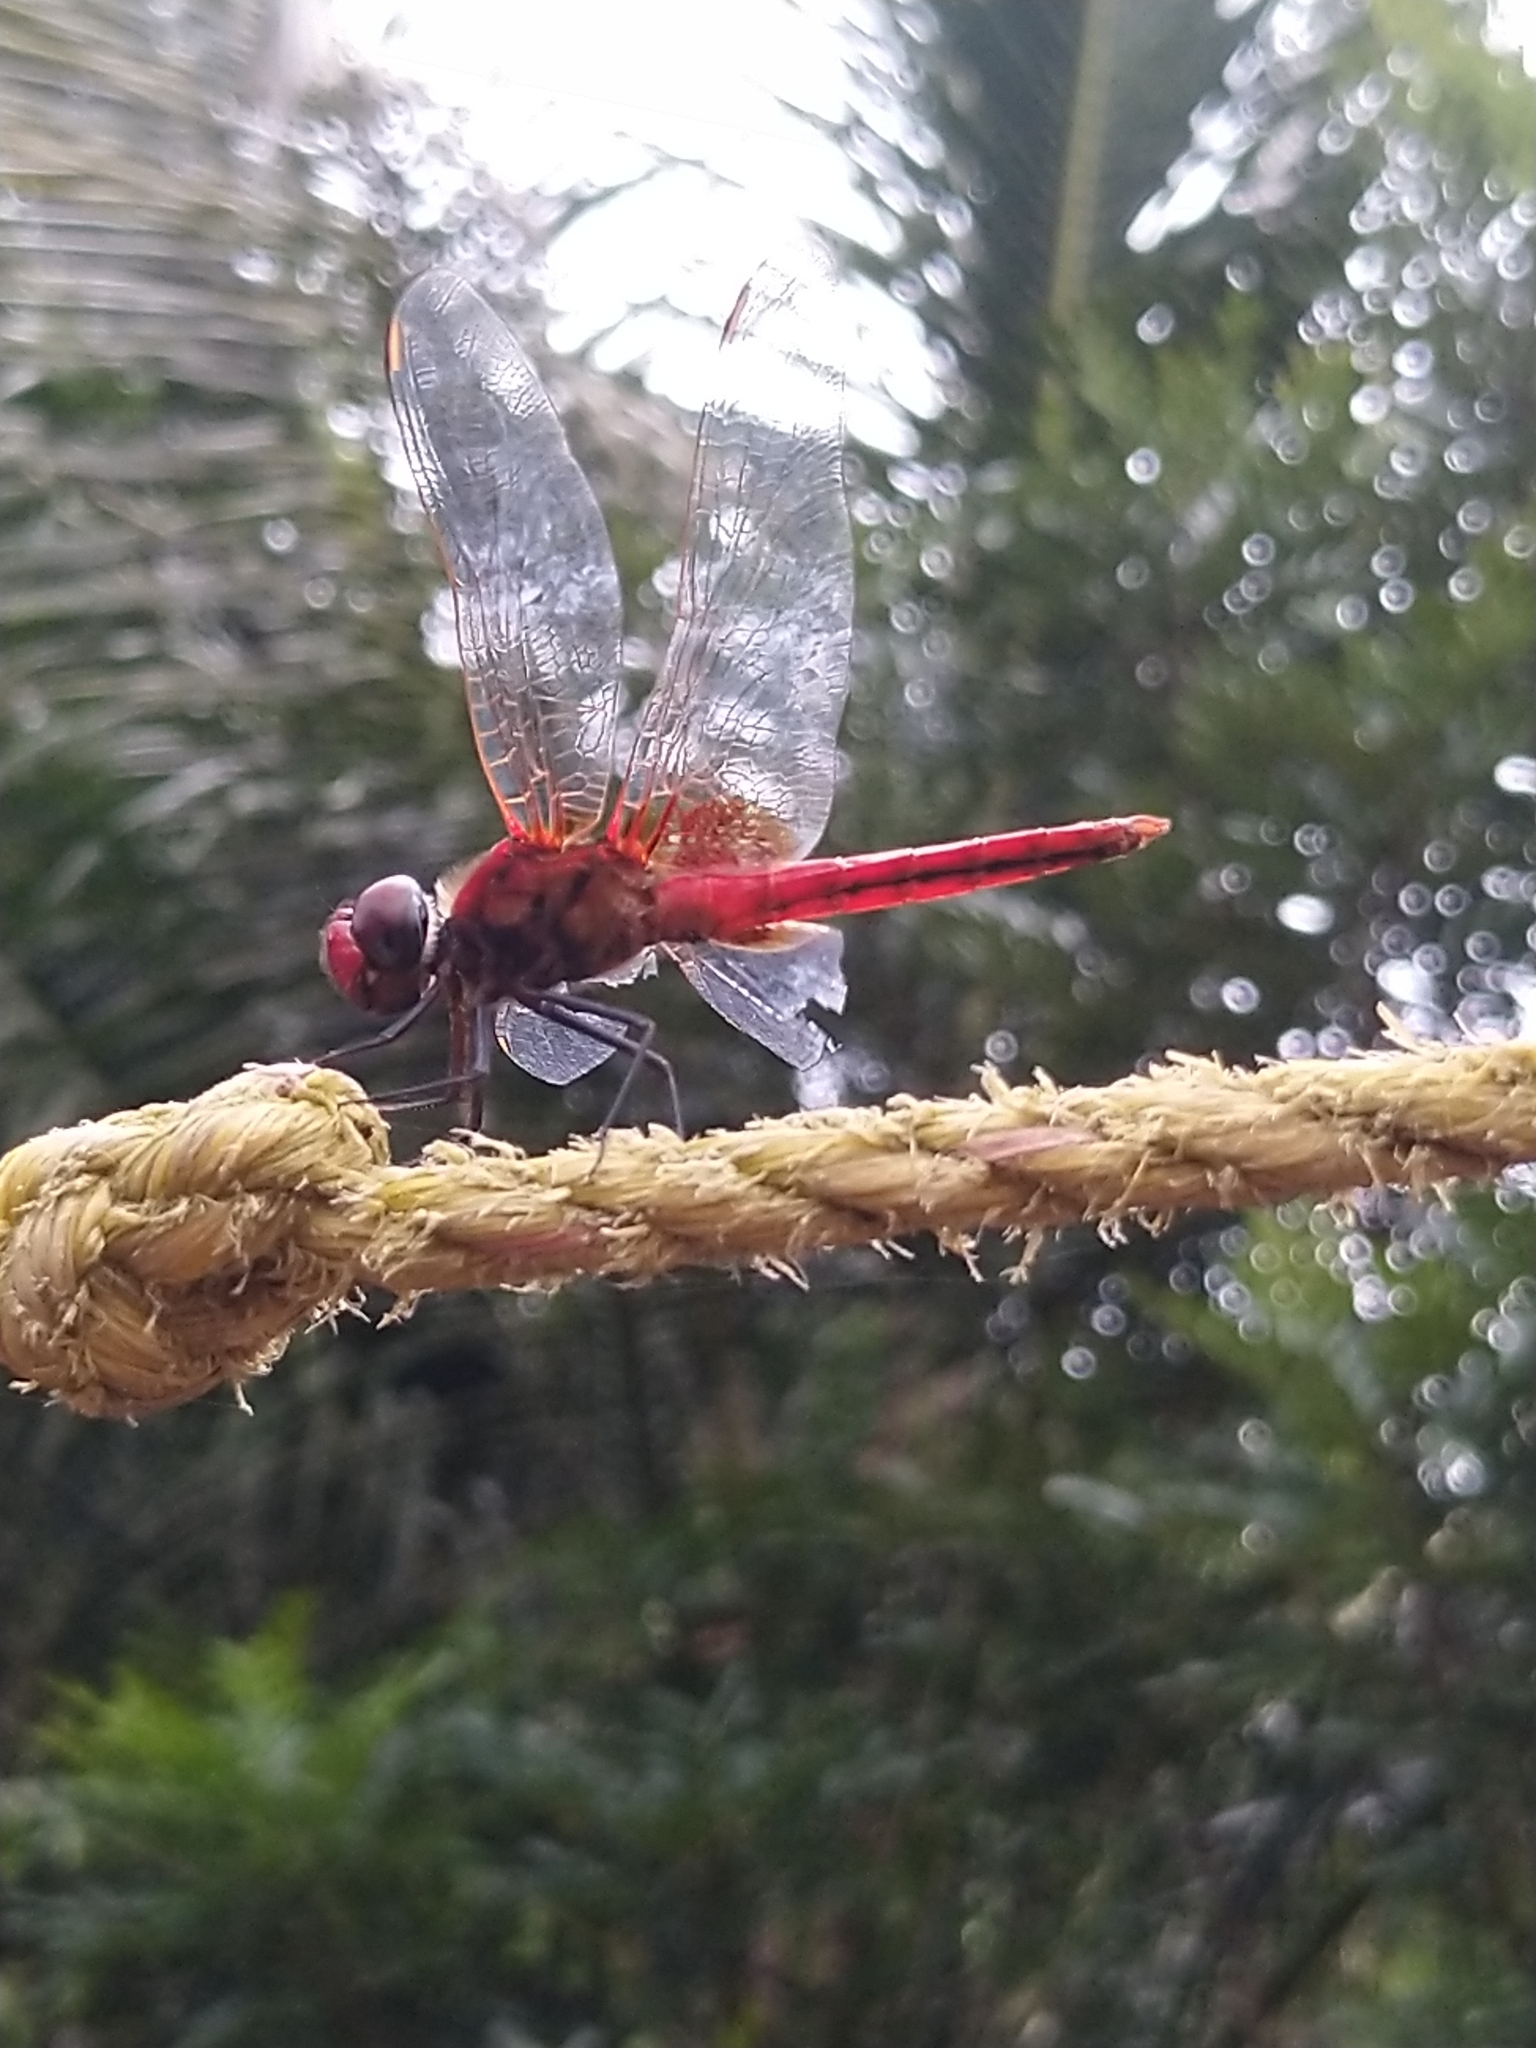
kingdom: Animalia
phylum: Arthropoda
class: Insecta
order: Odonata
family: Libellulidae
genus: Urothemis
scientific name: Urothemis signata
